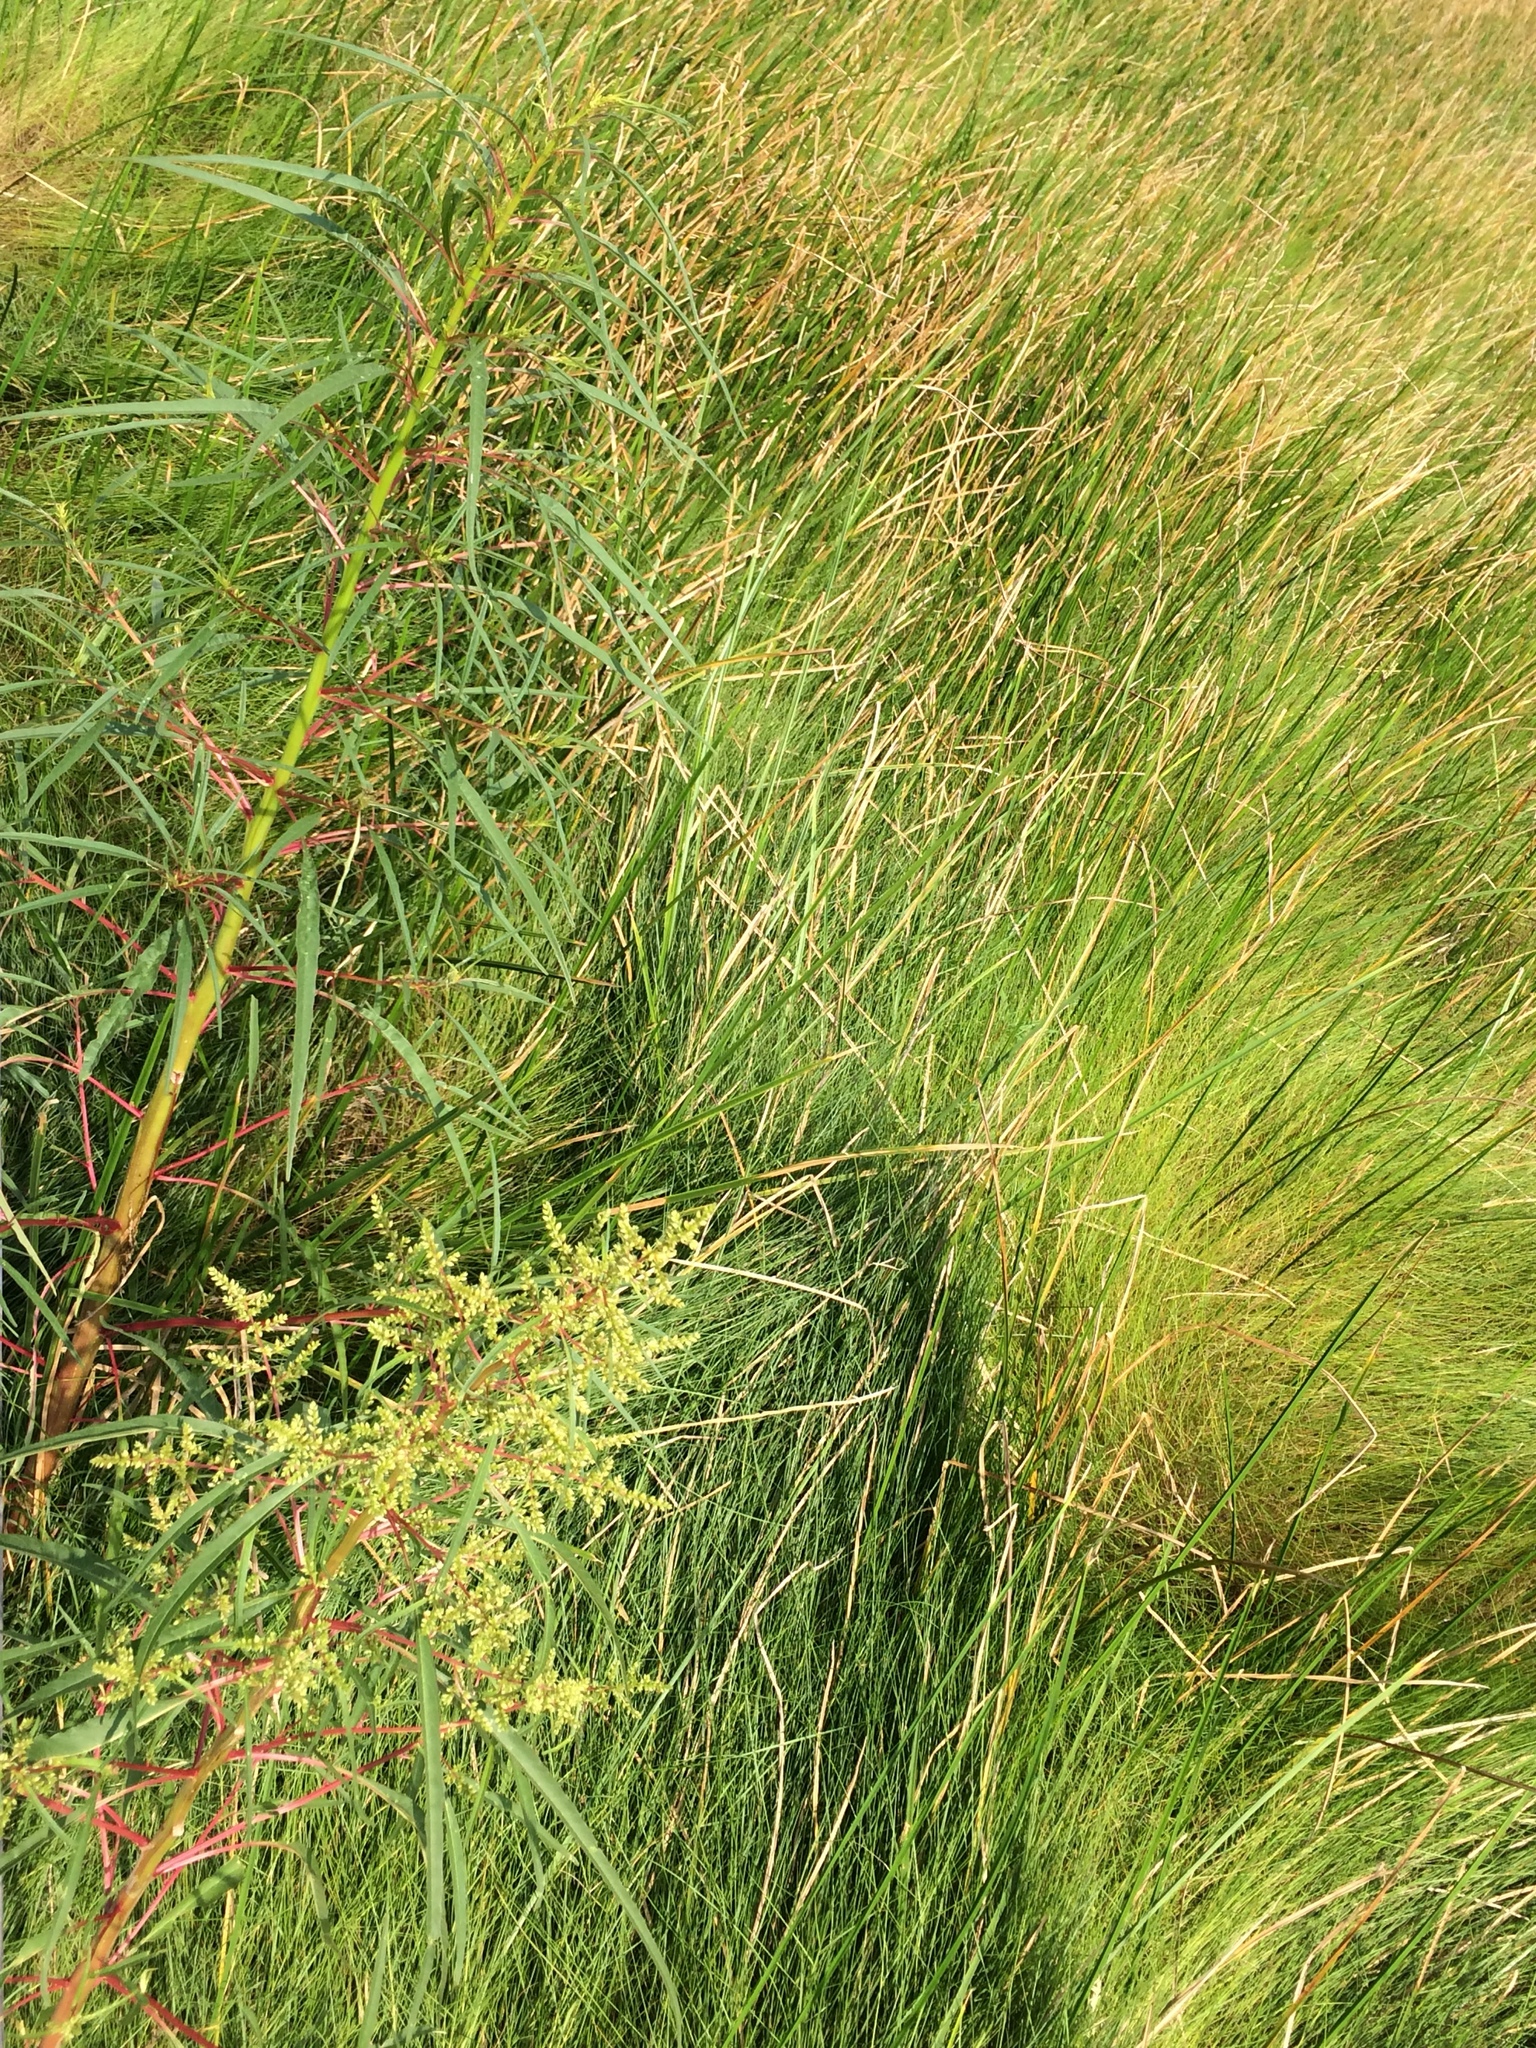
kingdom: Plantae
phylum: Tracheophyta
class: Magnoliopsida
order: Caryophyllales
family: Amaranthaceae
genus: Amaranthus
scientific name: Amaranthus cannabinus
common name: Salt-marsh water-hemp
